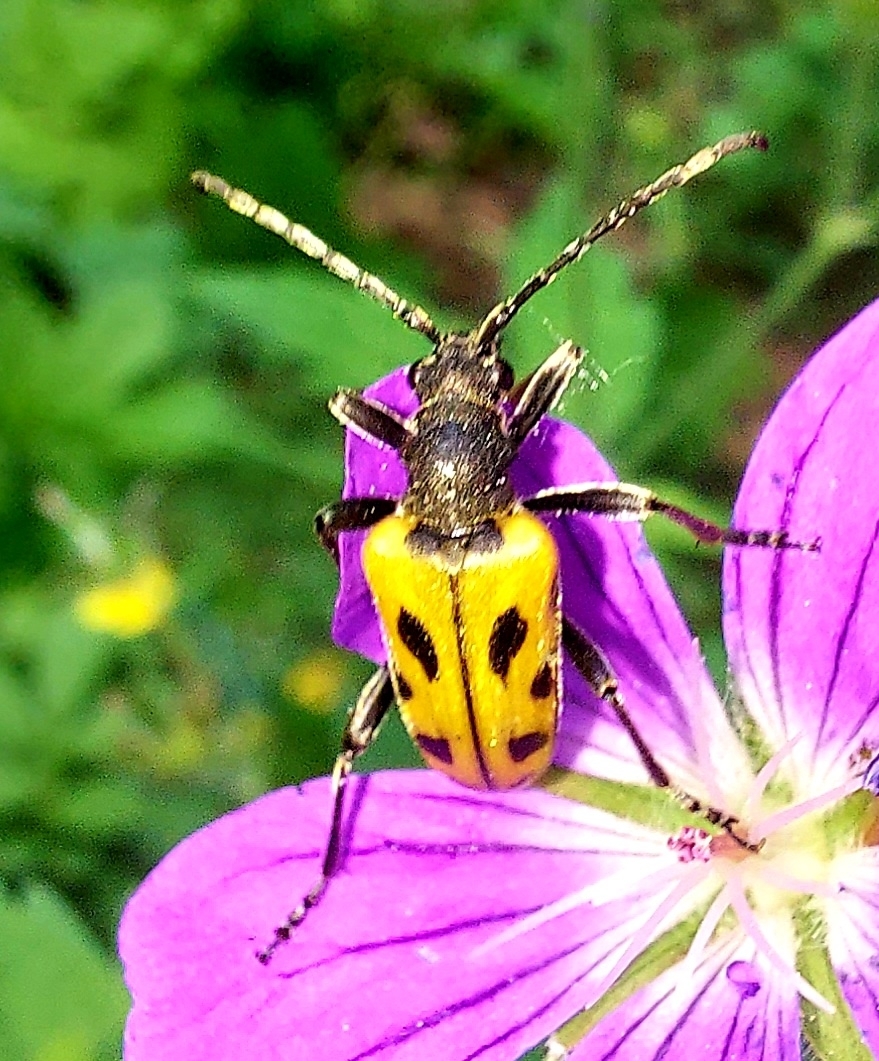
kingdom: Animalia
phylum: Arthropoda
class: Insecta
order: Coleoptera
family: Cerambycidae
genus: Brachyta
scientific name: Brachyta interrogationis
